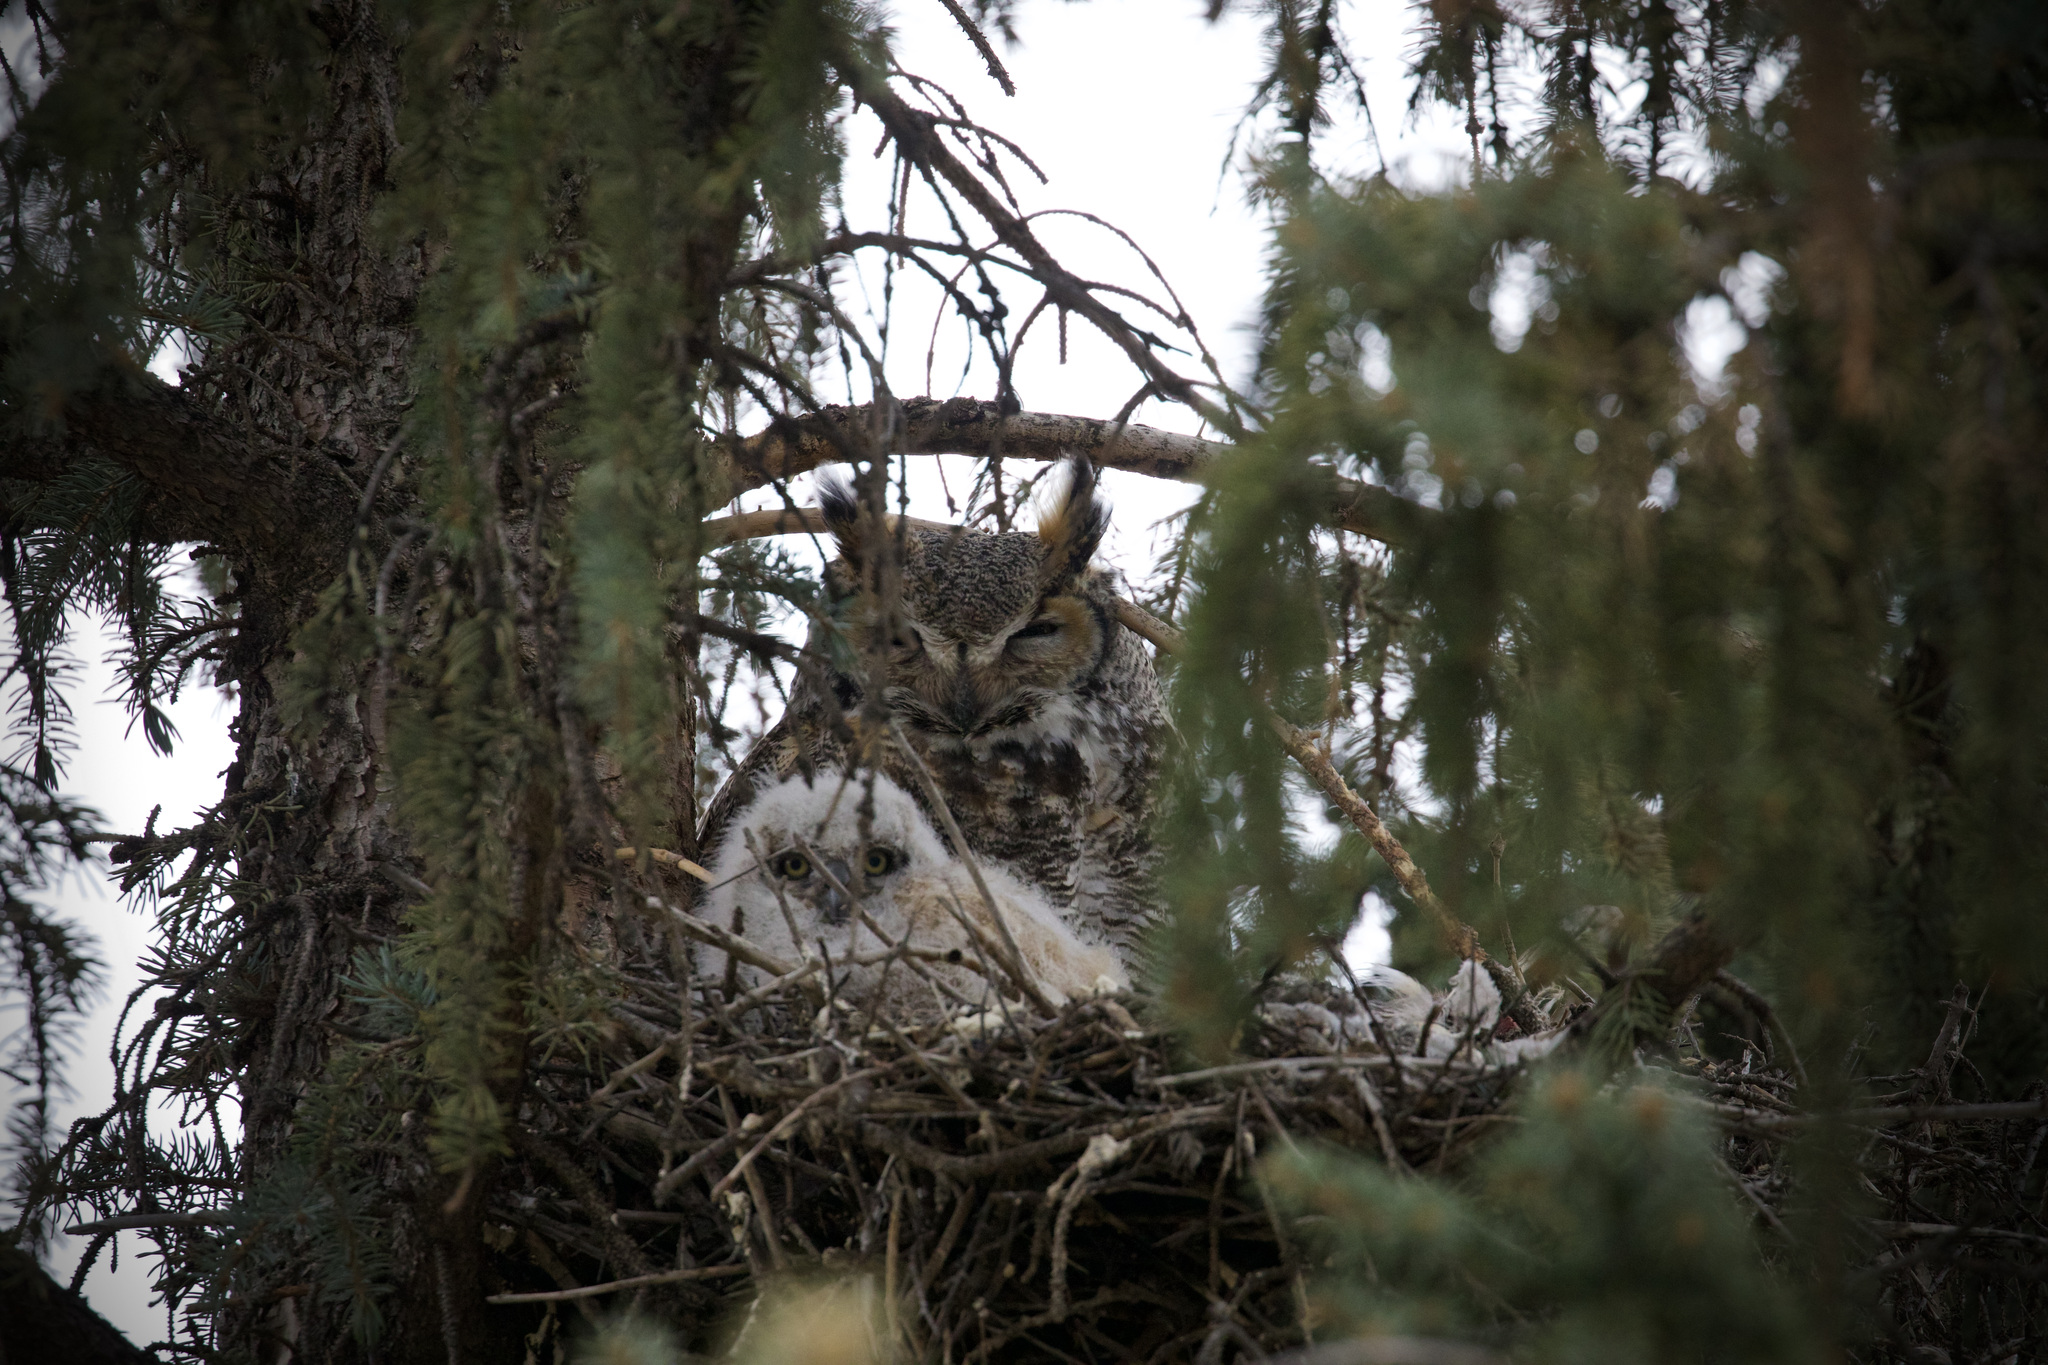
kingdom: Animalia
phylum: Chordata
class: Aves
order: Strigiformes
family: Strigidae
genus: Bubo
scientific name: Bubo virginianus
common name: Great horned owl
